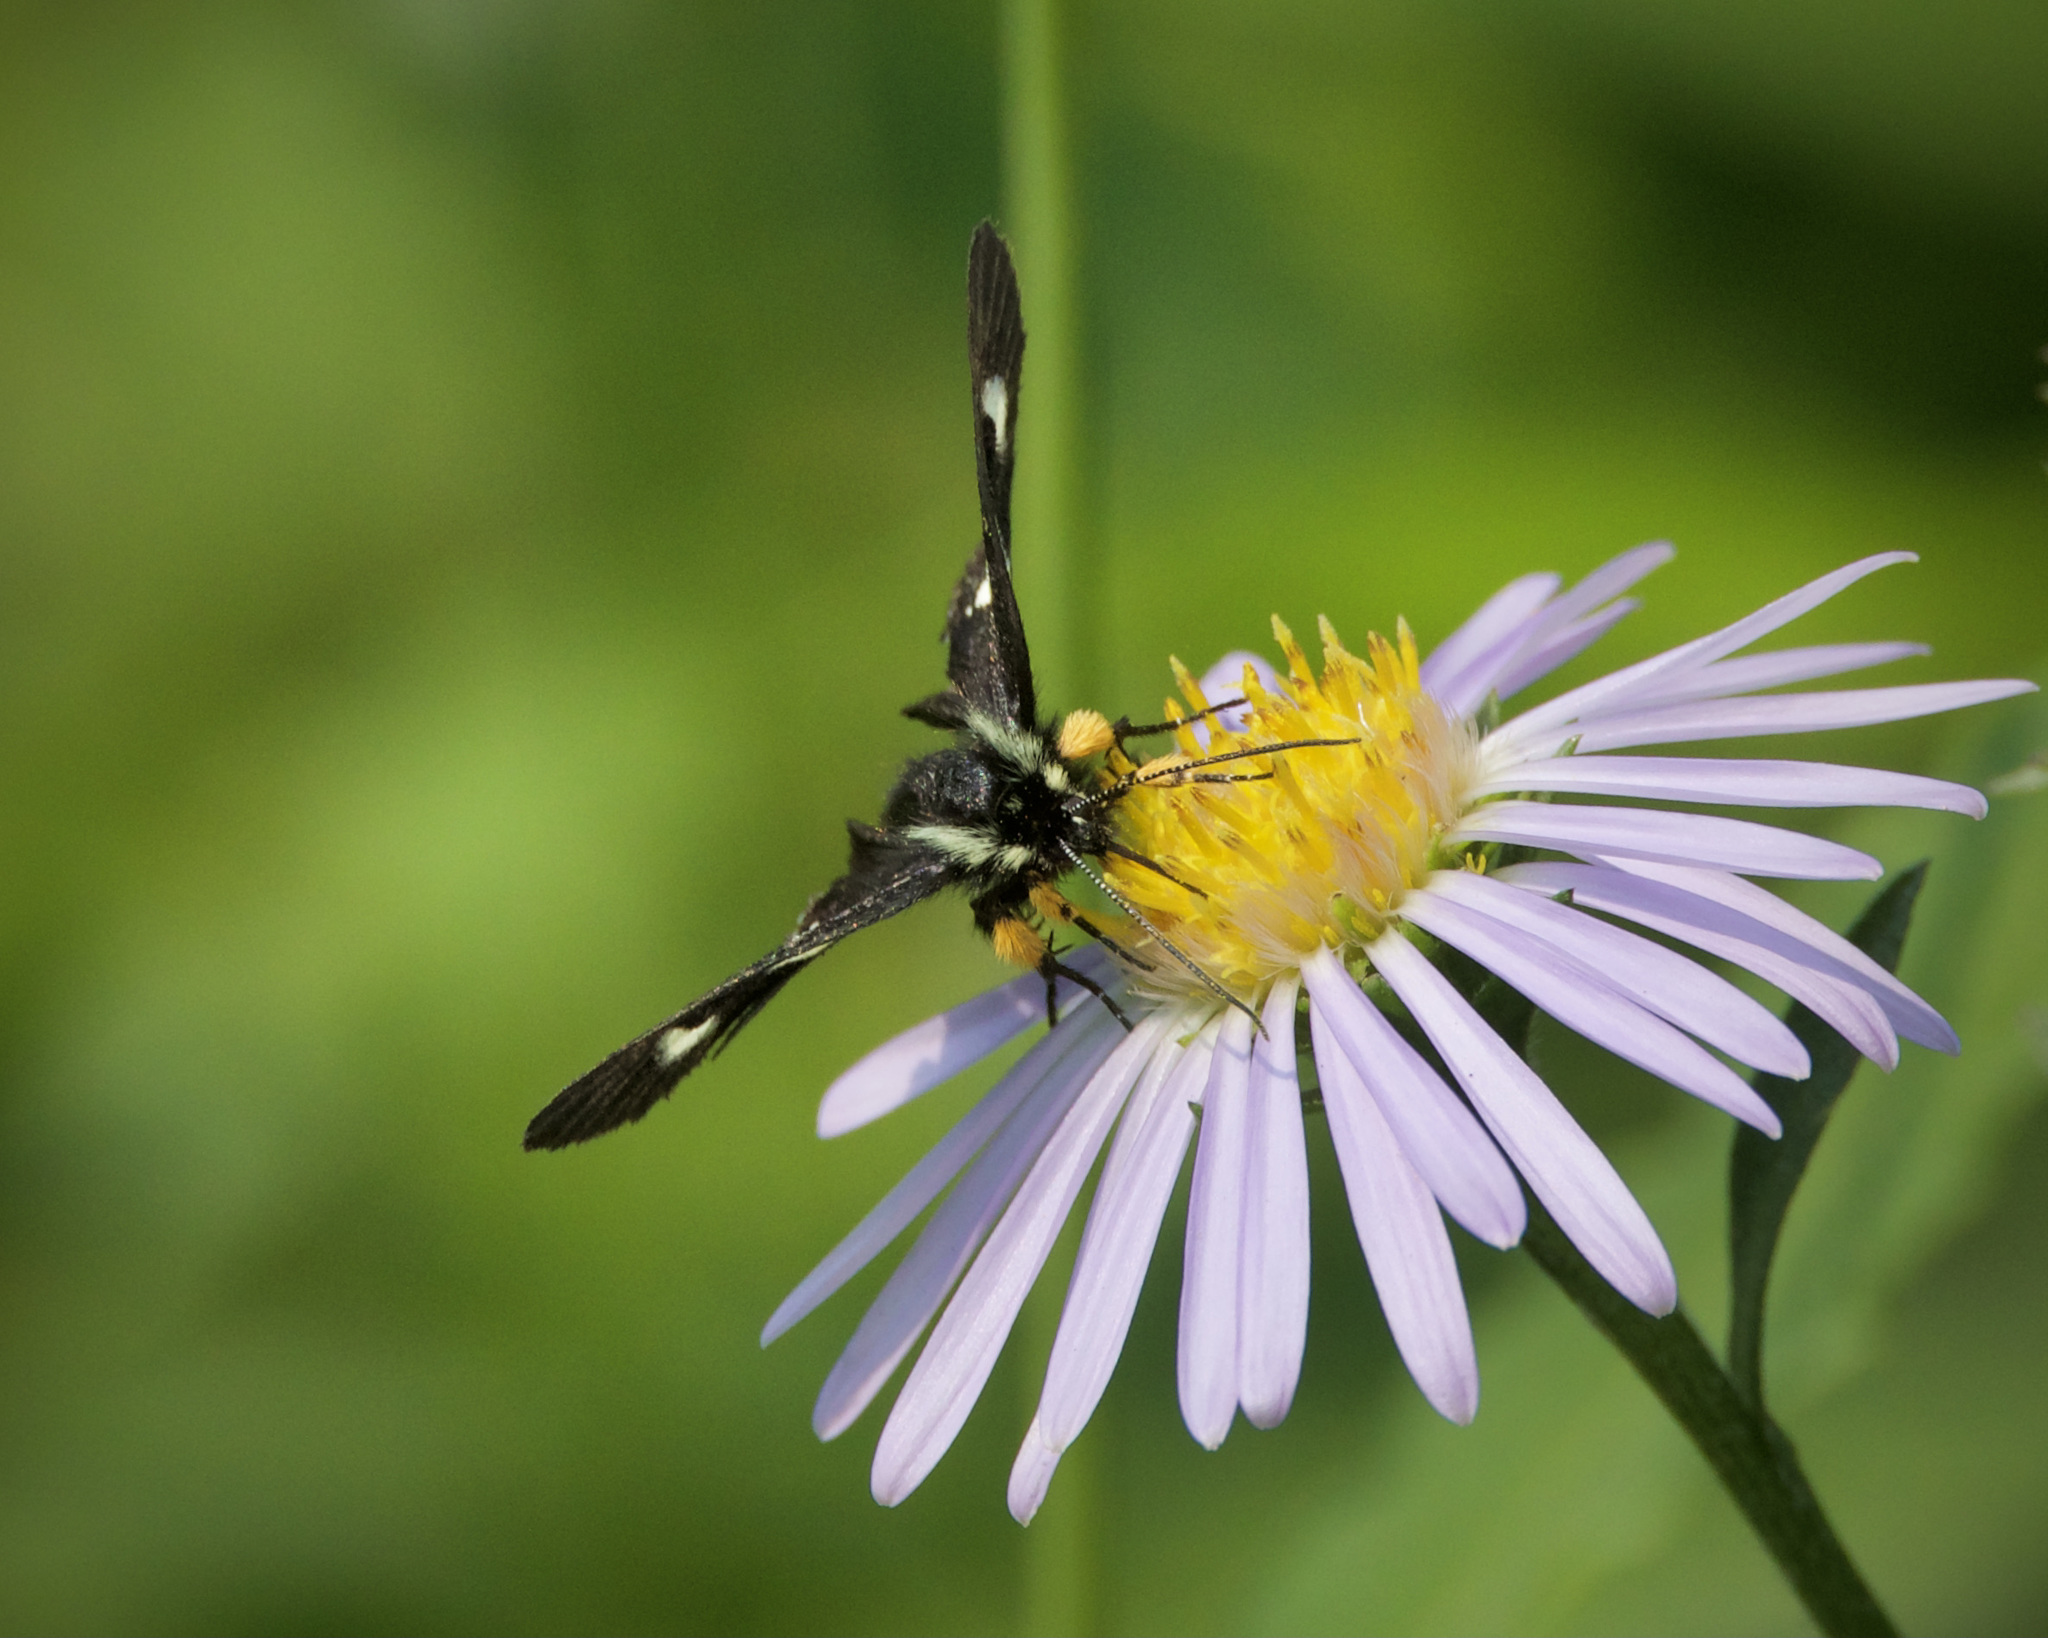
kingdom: Animalia
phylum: Arthropoda
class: Insecta
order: Lepidoptera
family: Noctuidae
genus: Alypia
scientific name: Alypia langtonii
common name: Fireweed caterpillar
